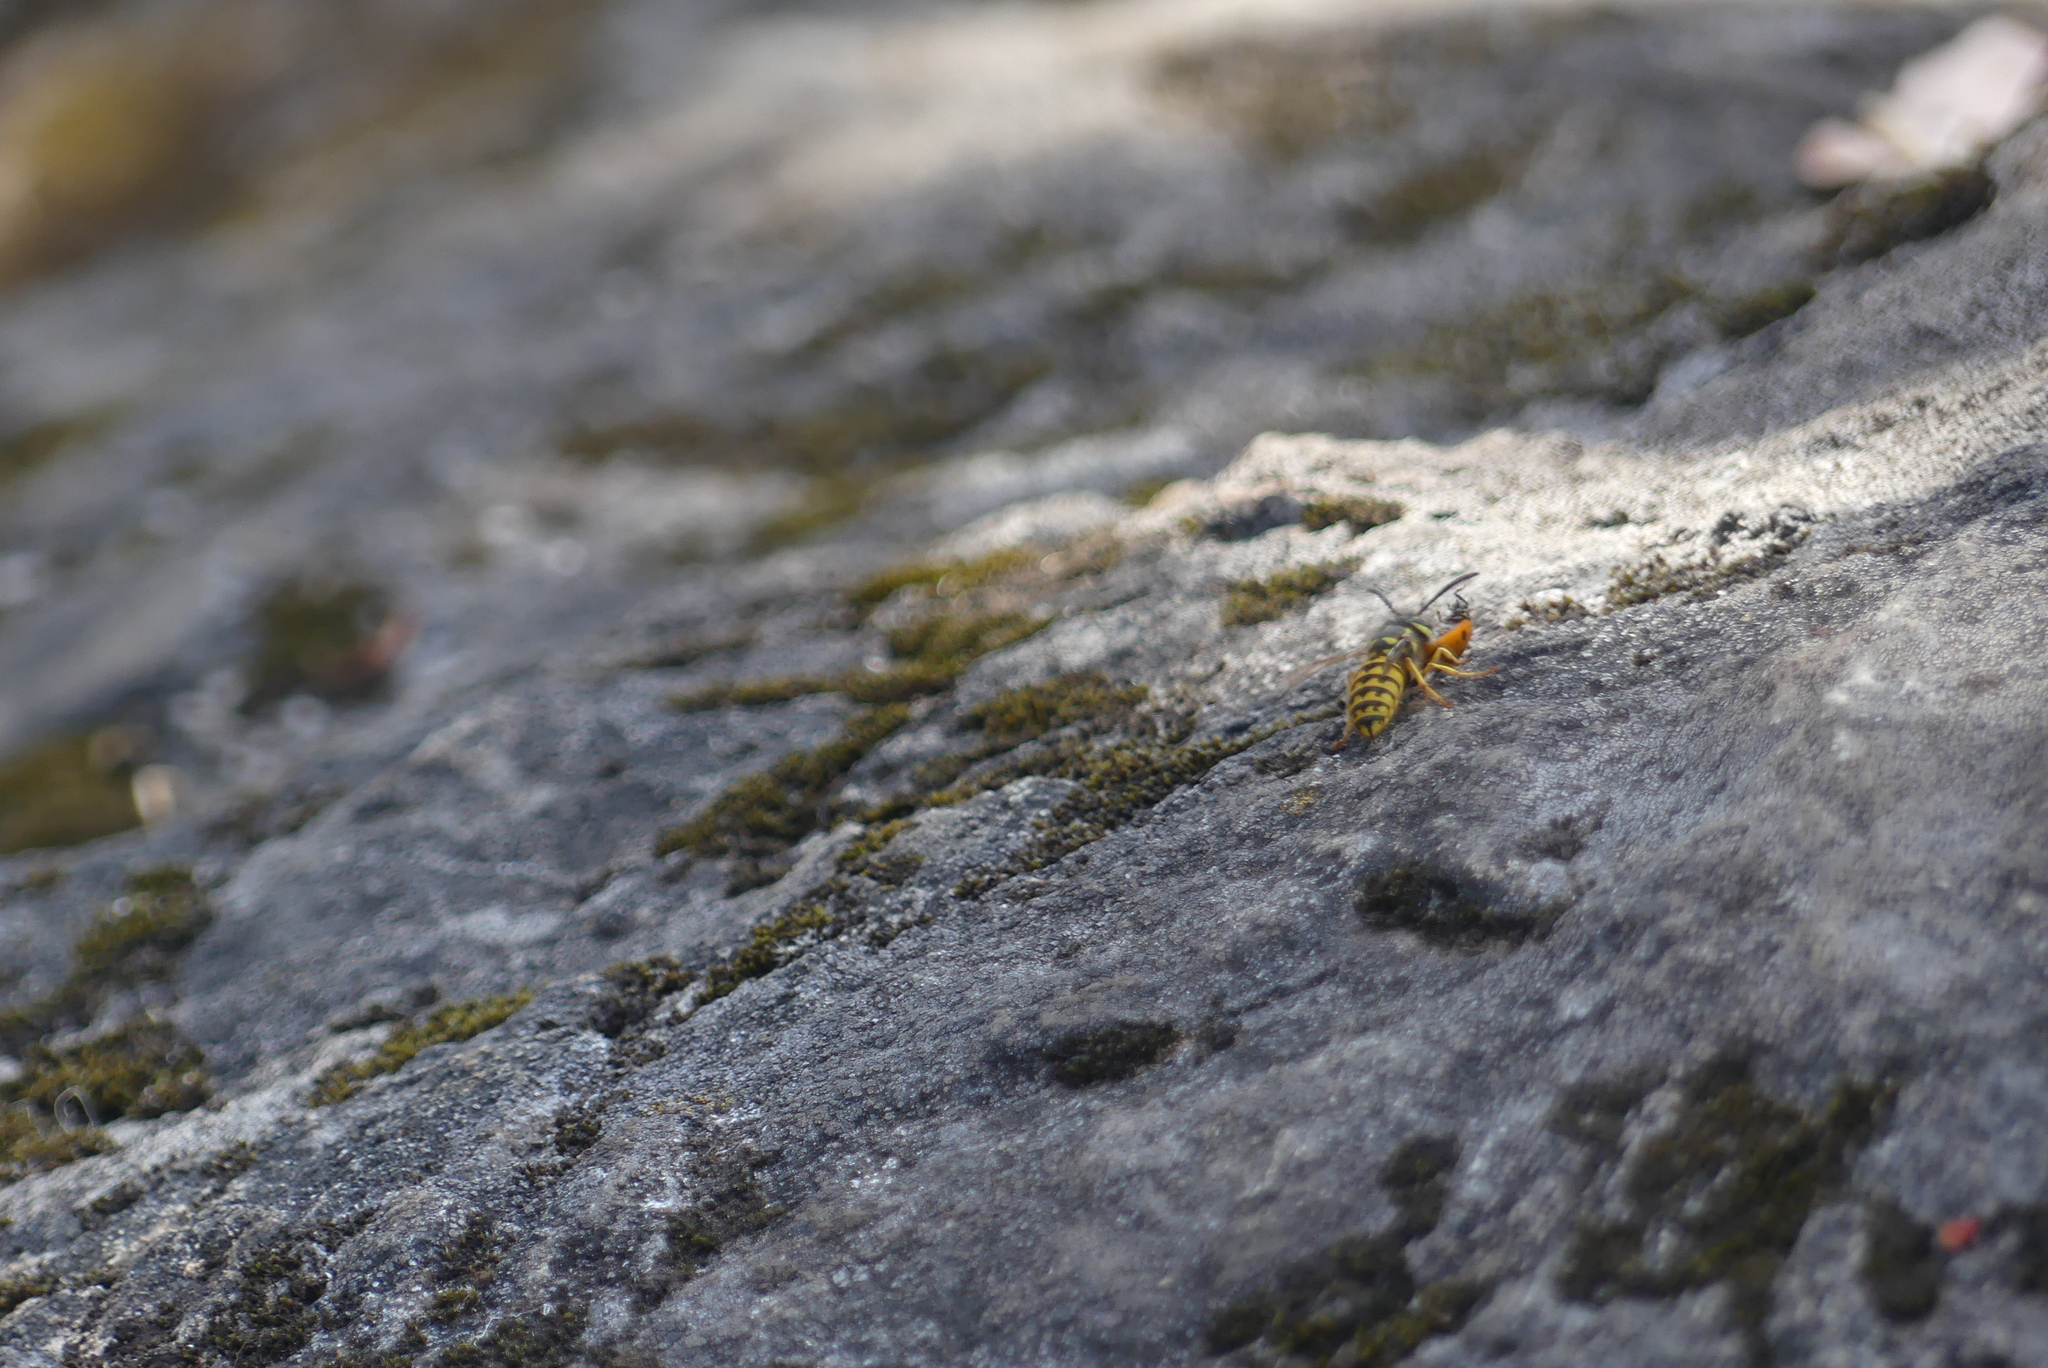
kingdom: Animalia
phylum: Arthropoda
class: Insecta
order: Hymenoptera
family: Vespidae
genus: Vespula
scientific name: Vespula pensylvanica
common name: Western yellowjacket
